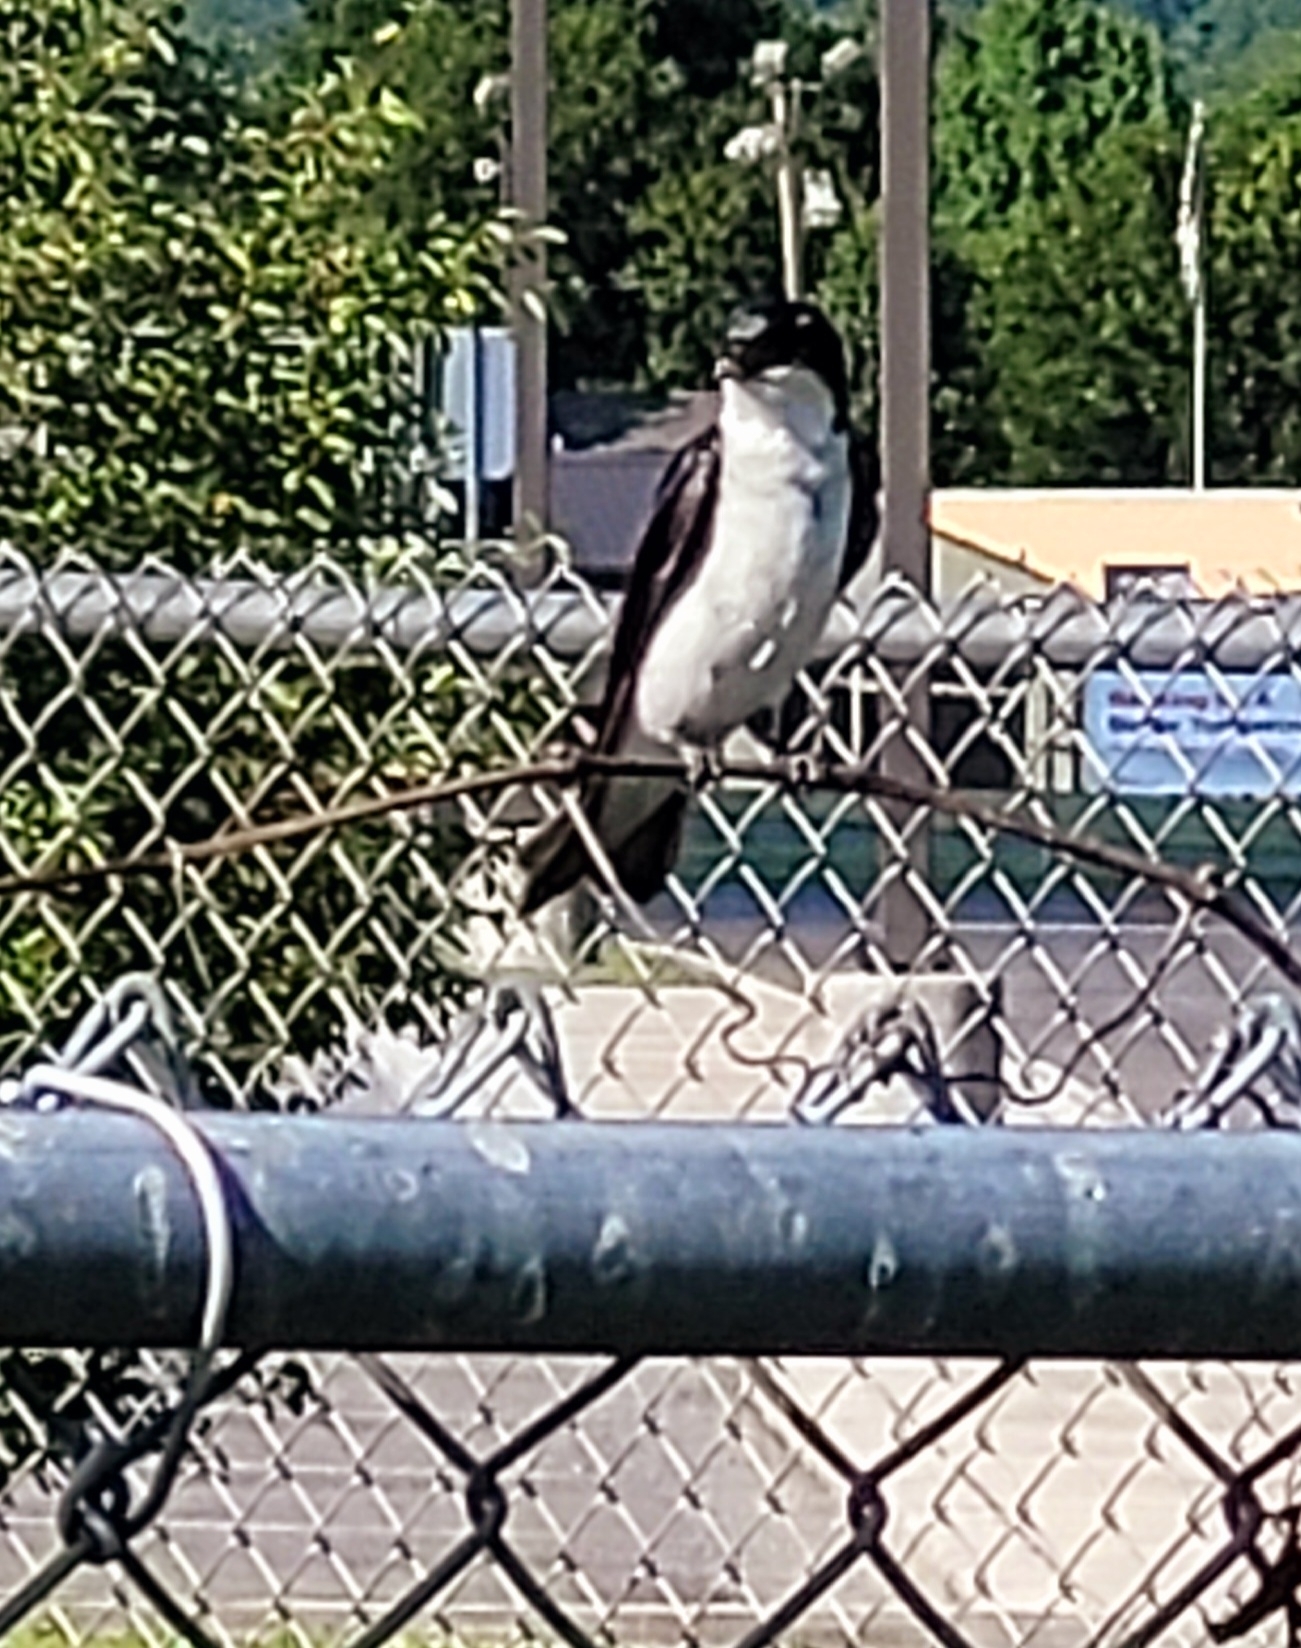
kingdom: Animalia
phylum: Chordata
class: Aves
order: Passeriformes
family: Hirundinidae
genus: Tachycineta
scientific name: Tachycineta bicolor
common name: Tree swallow
